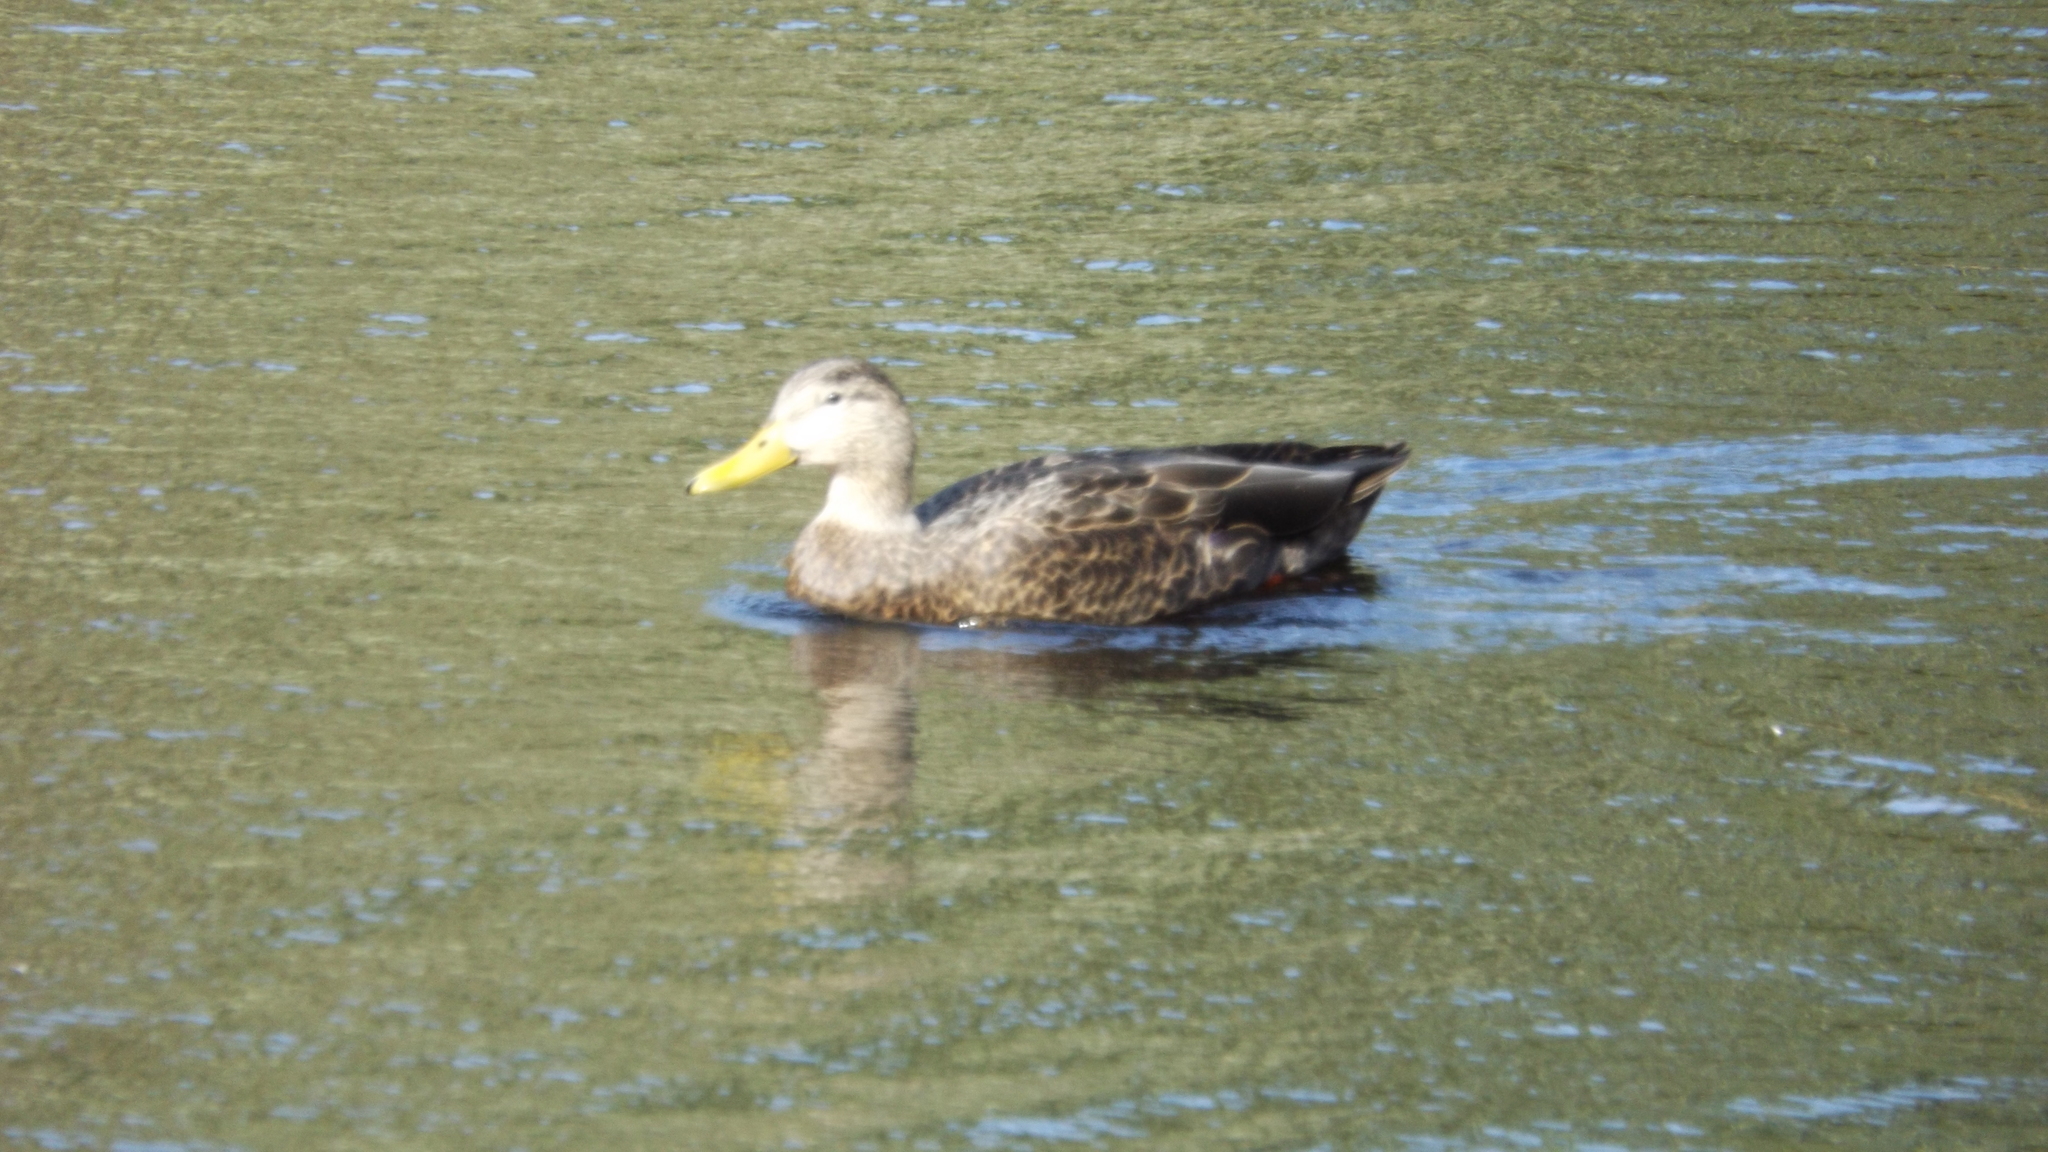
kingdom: Animalia
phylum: Chordata
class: Aves
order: Anseriformes
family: Anatidae
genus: Anas
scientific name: Anas rubripes
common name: American black duck
